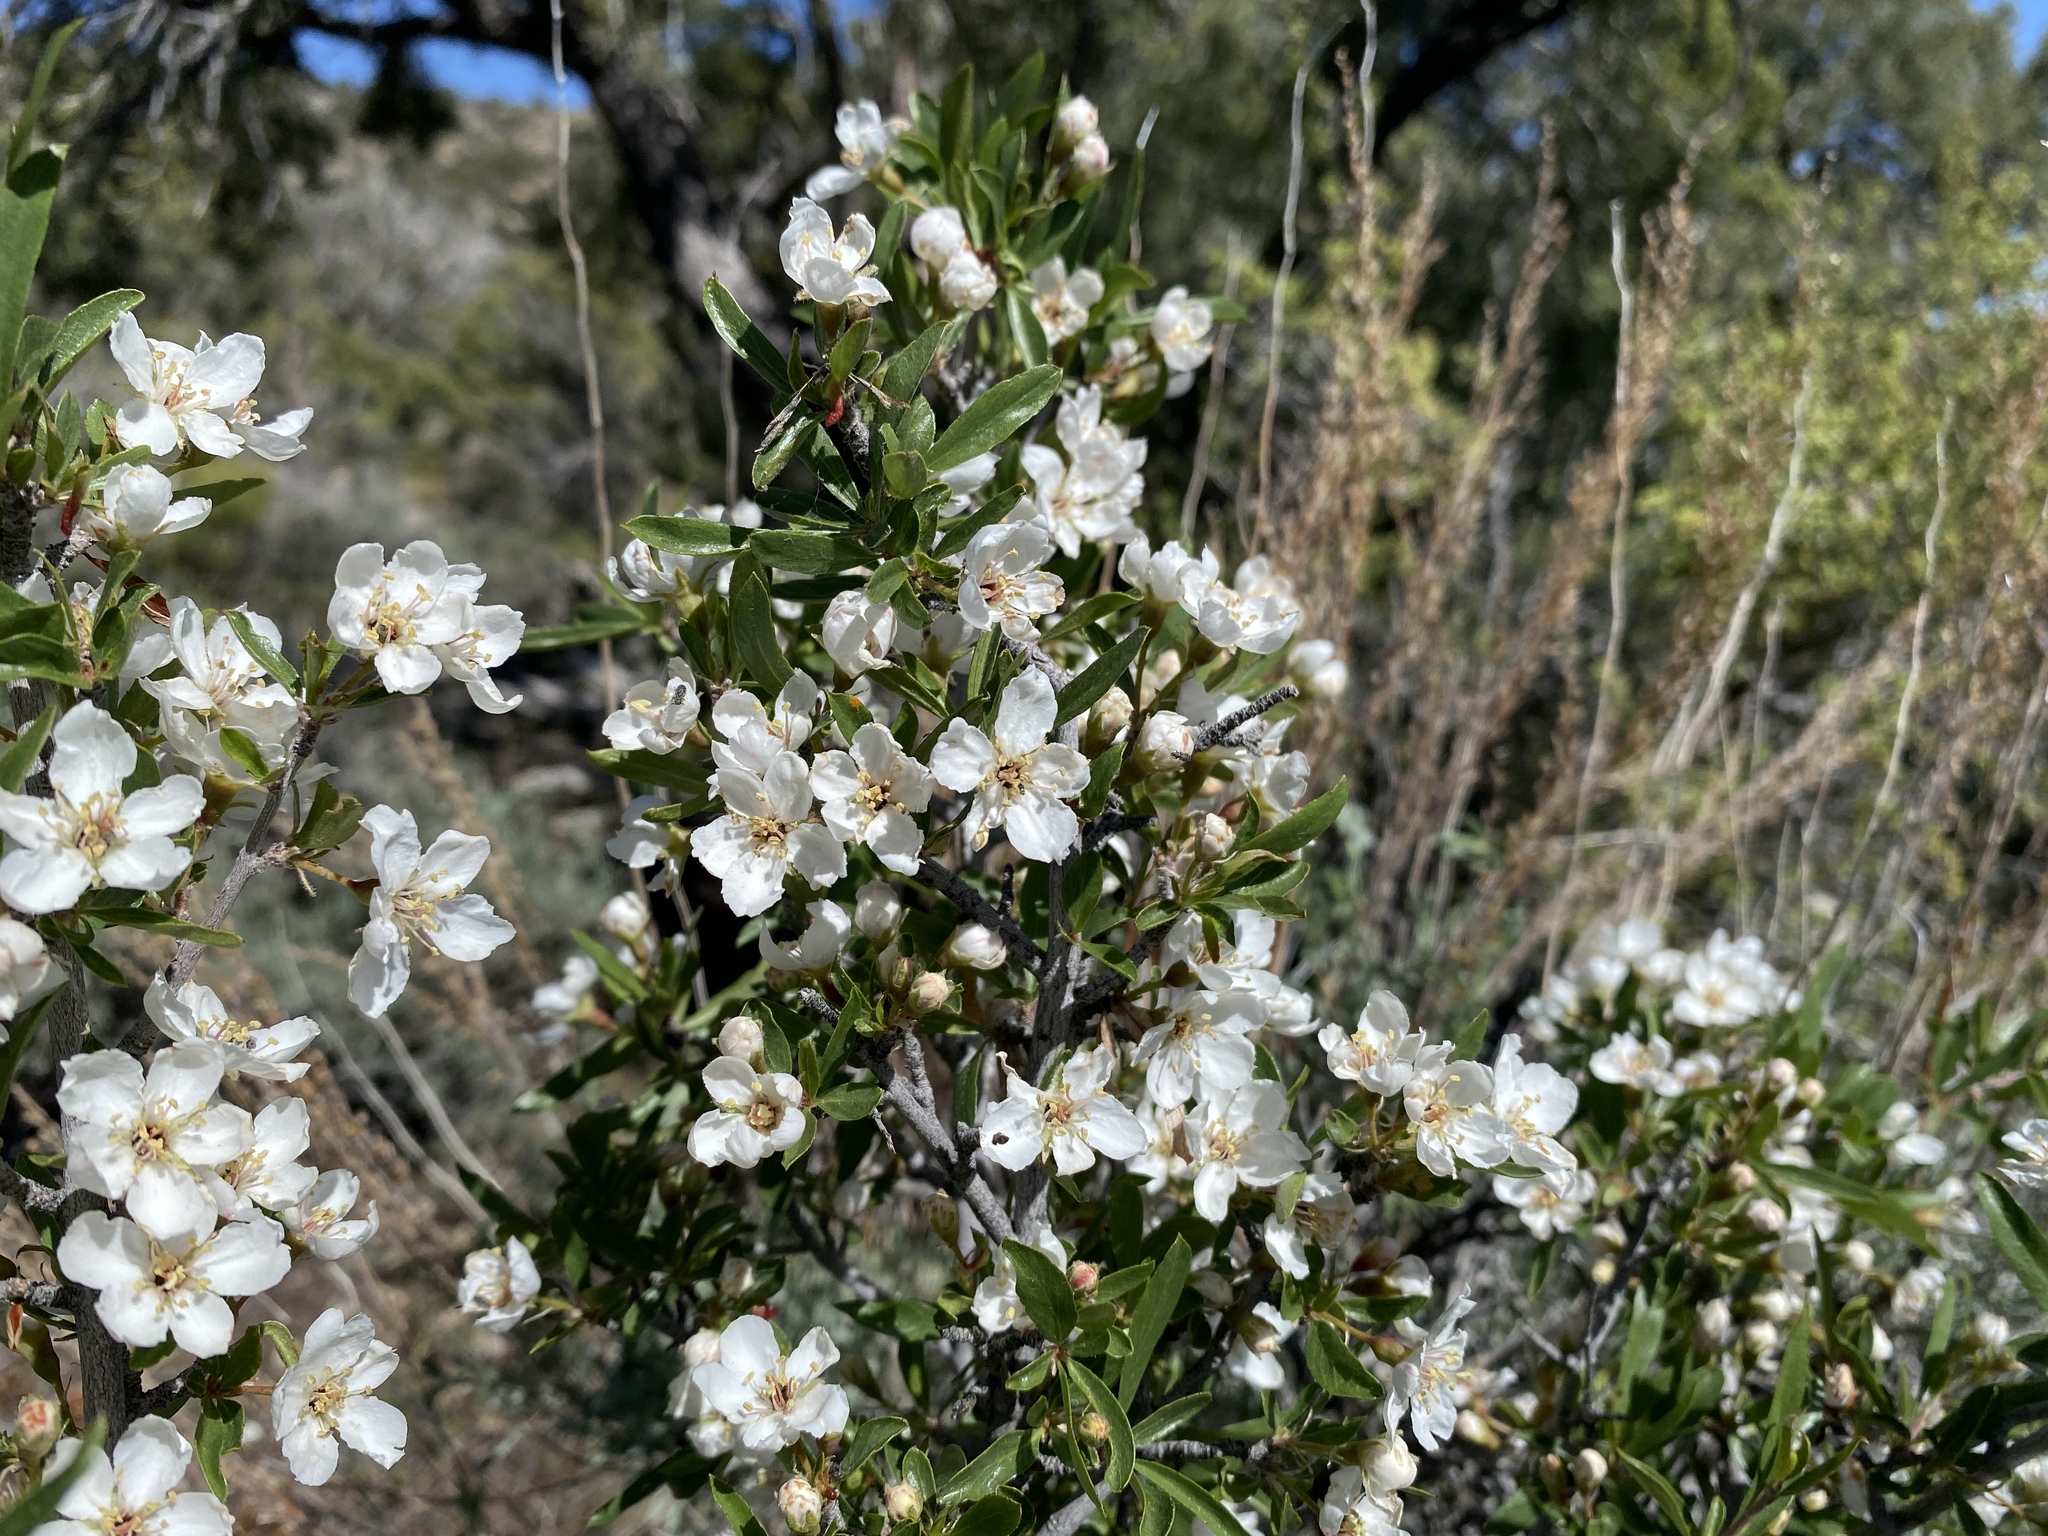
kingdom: Plantae
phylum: Tracheophyta
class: Magnoliopsida
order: Rosales
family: Rosaceae
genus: Amelanchier
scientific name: Amelanchier ramosissima
